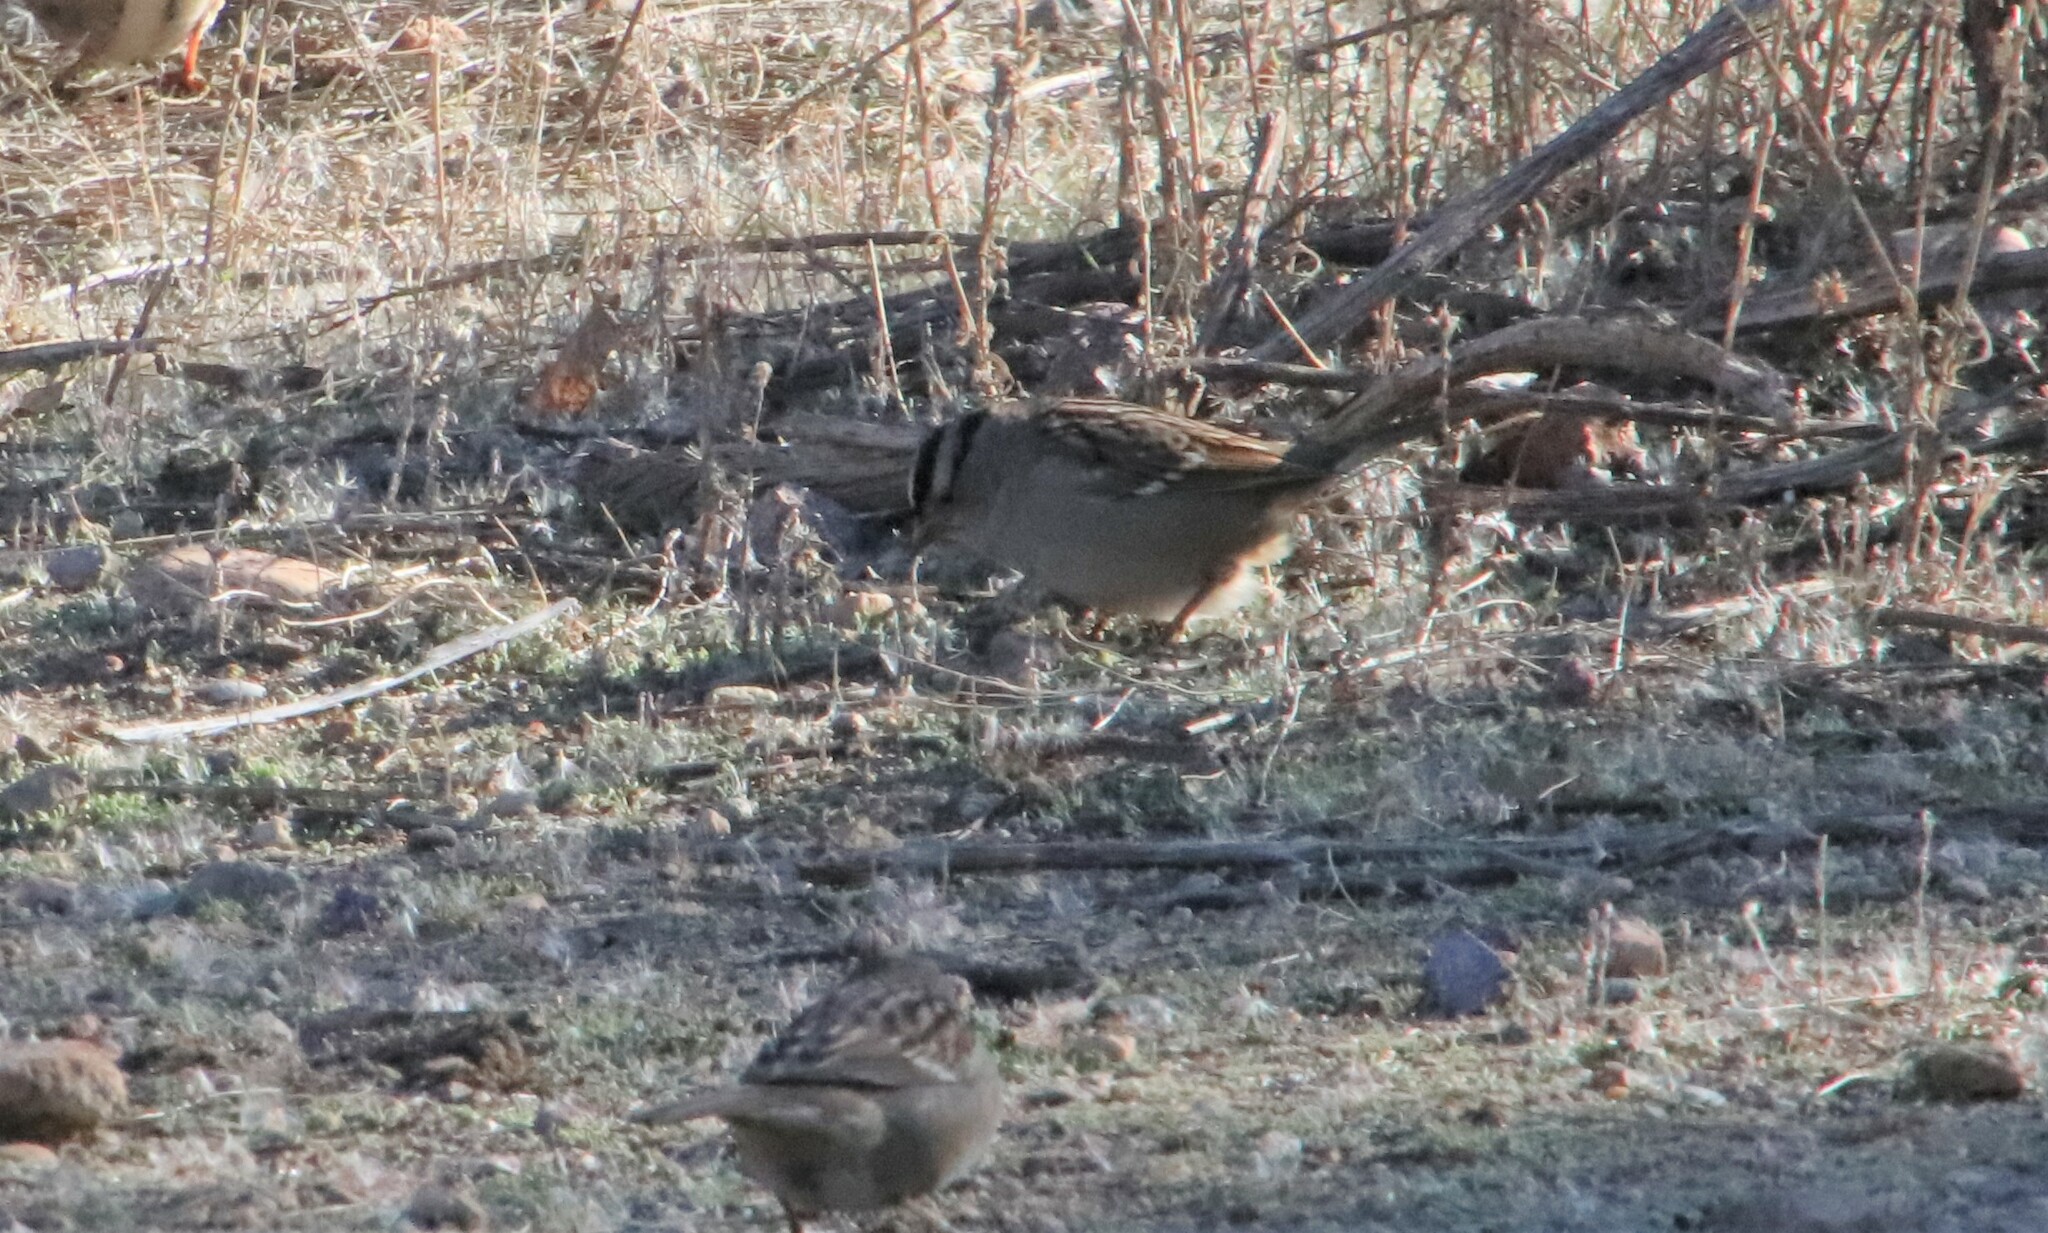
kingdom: Animalia
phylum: Chordata
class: Aves
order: Passeriformes
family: Passerellidae
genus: Zonotrichia
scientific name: Zonotrichia leucophrys
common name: White-crowned sparrow
